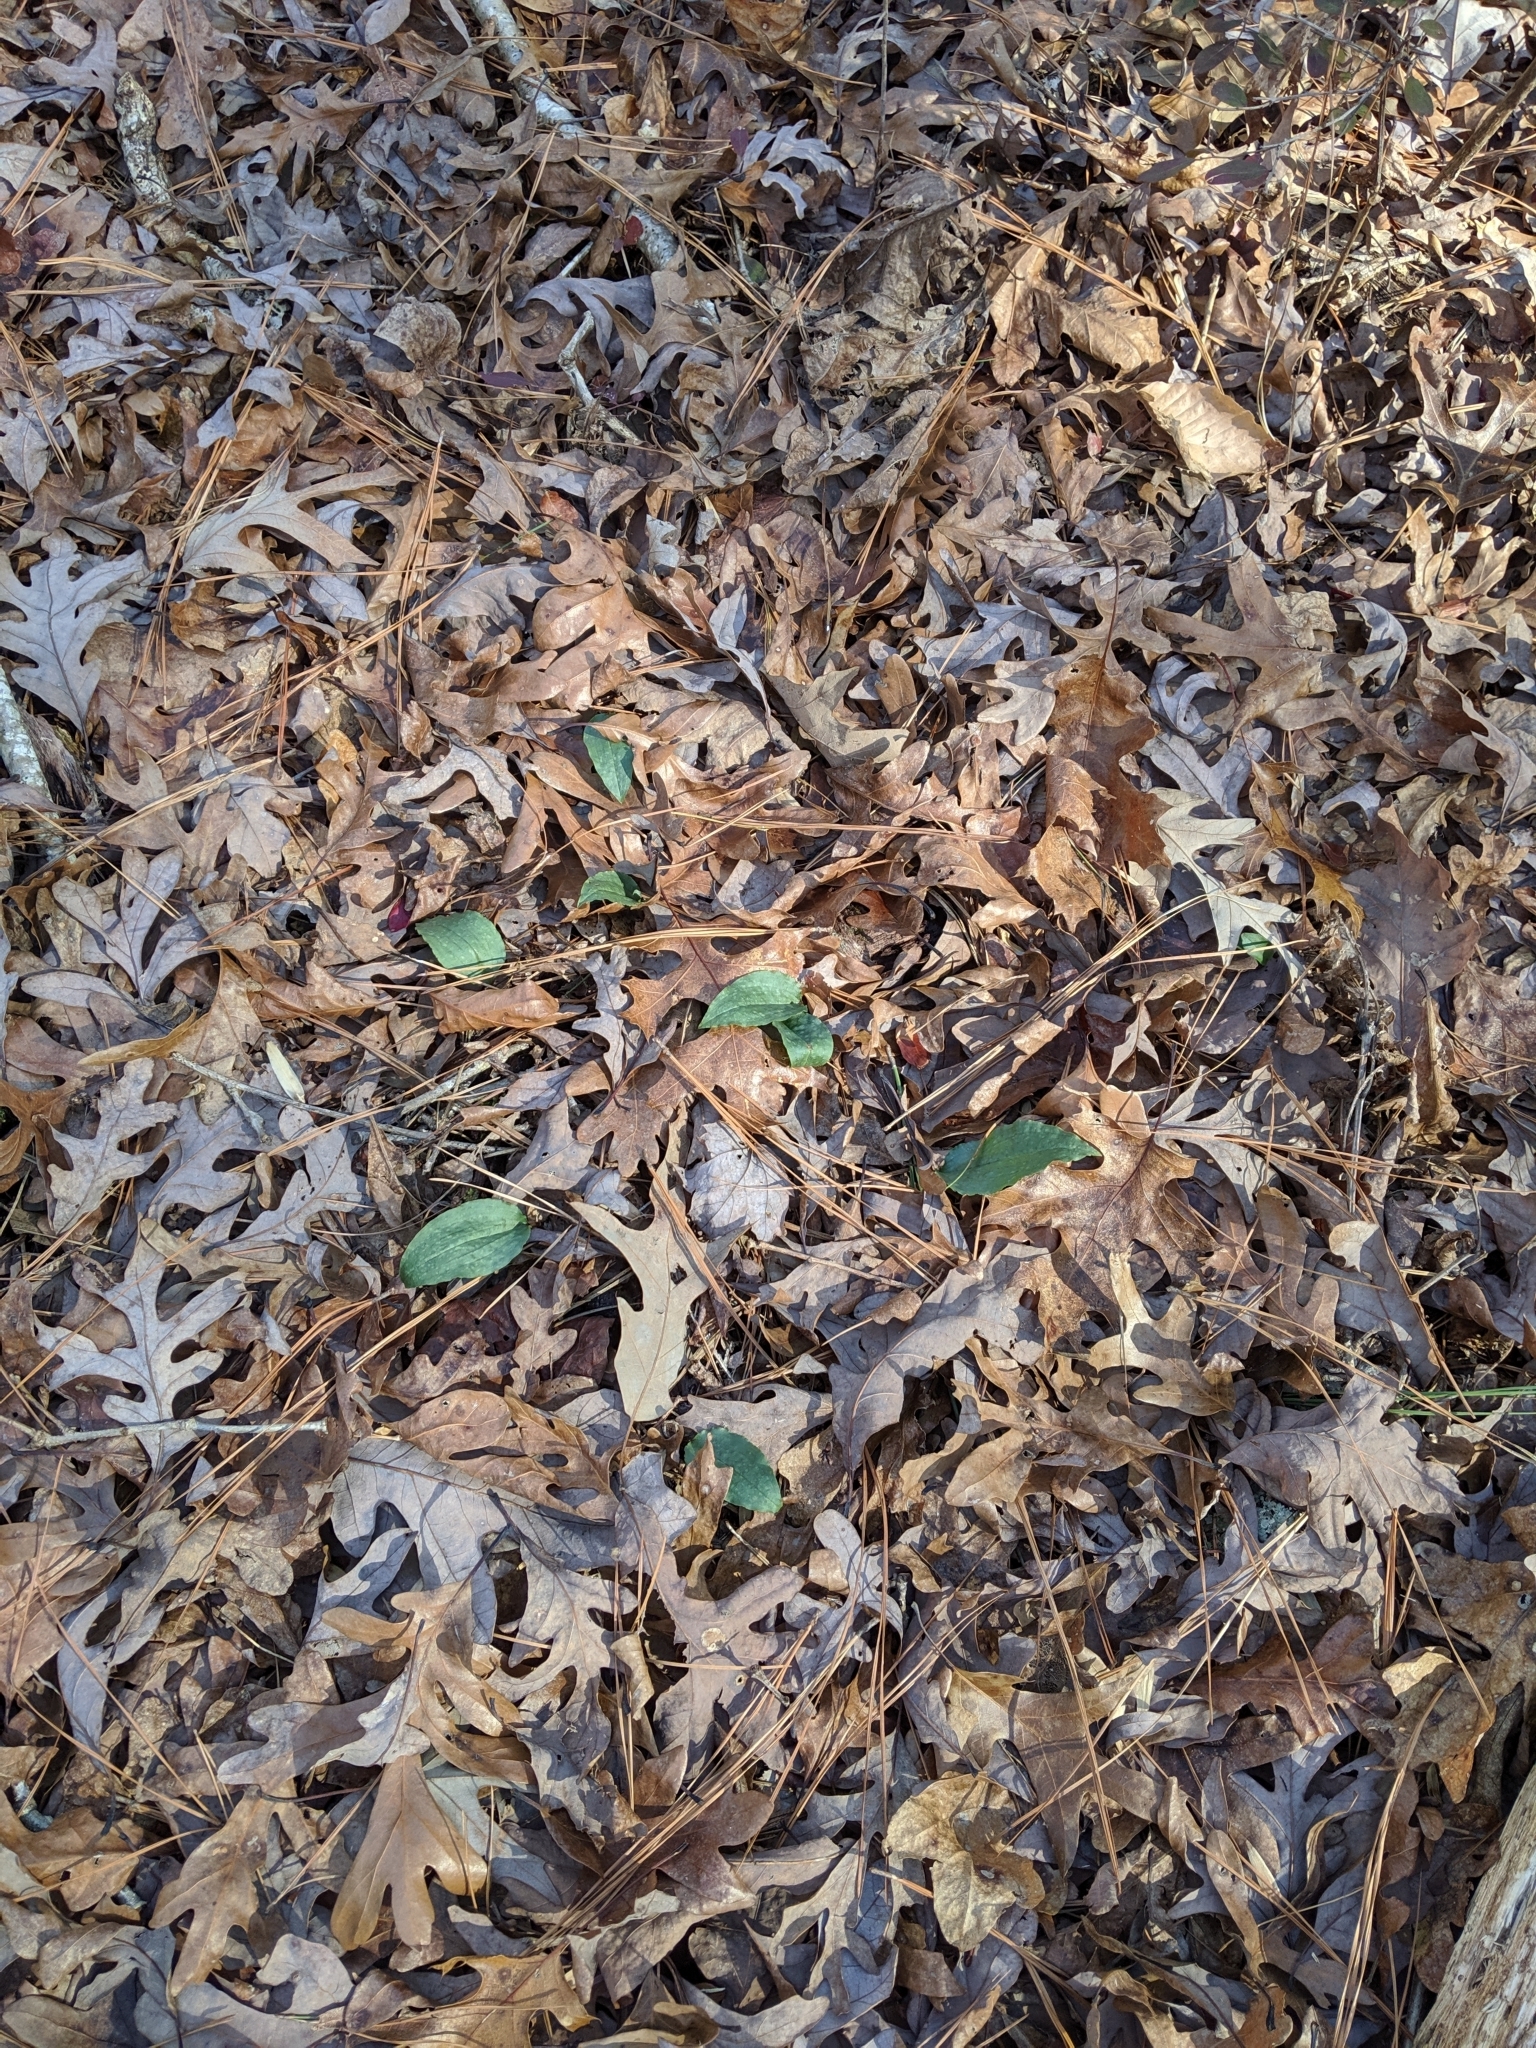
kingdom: Plantae
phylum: Tracheophyta
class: Liliopsida
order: Asparagales
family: Orchidaceae
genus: Tipularia
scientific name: Tipularia discolor
